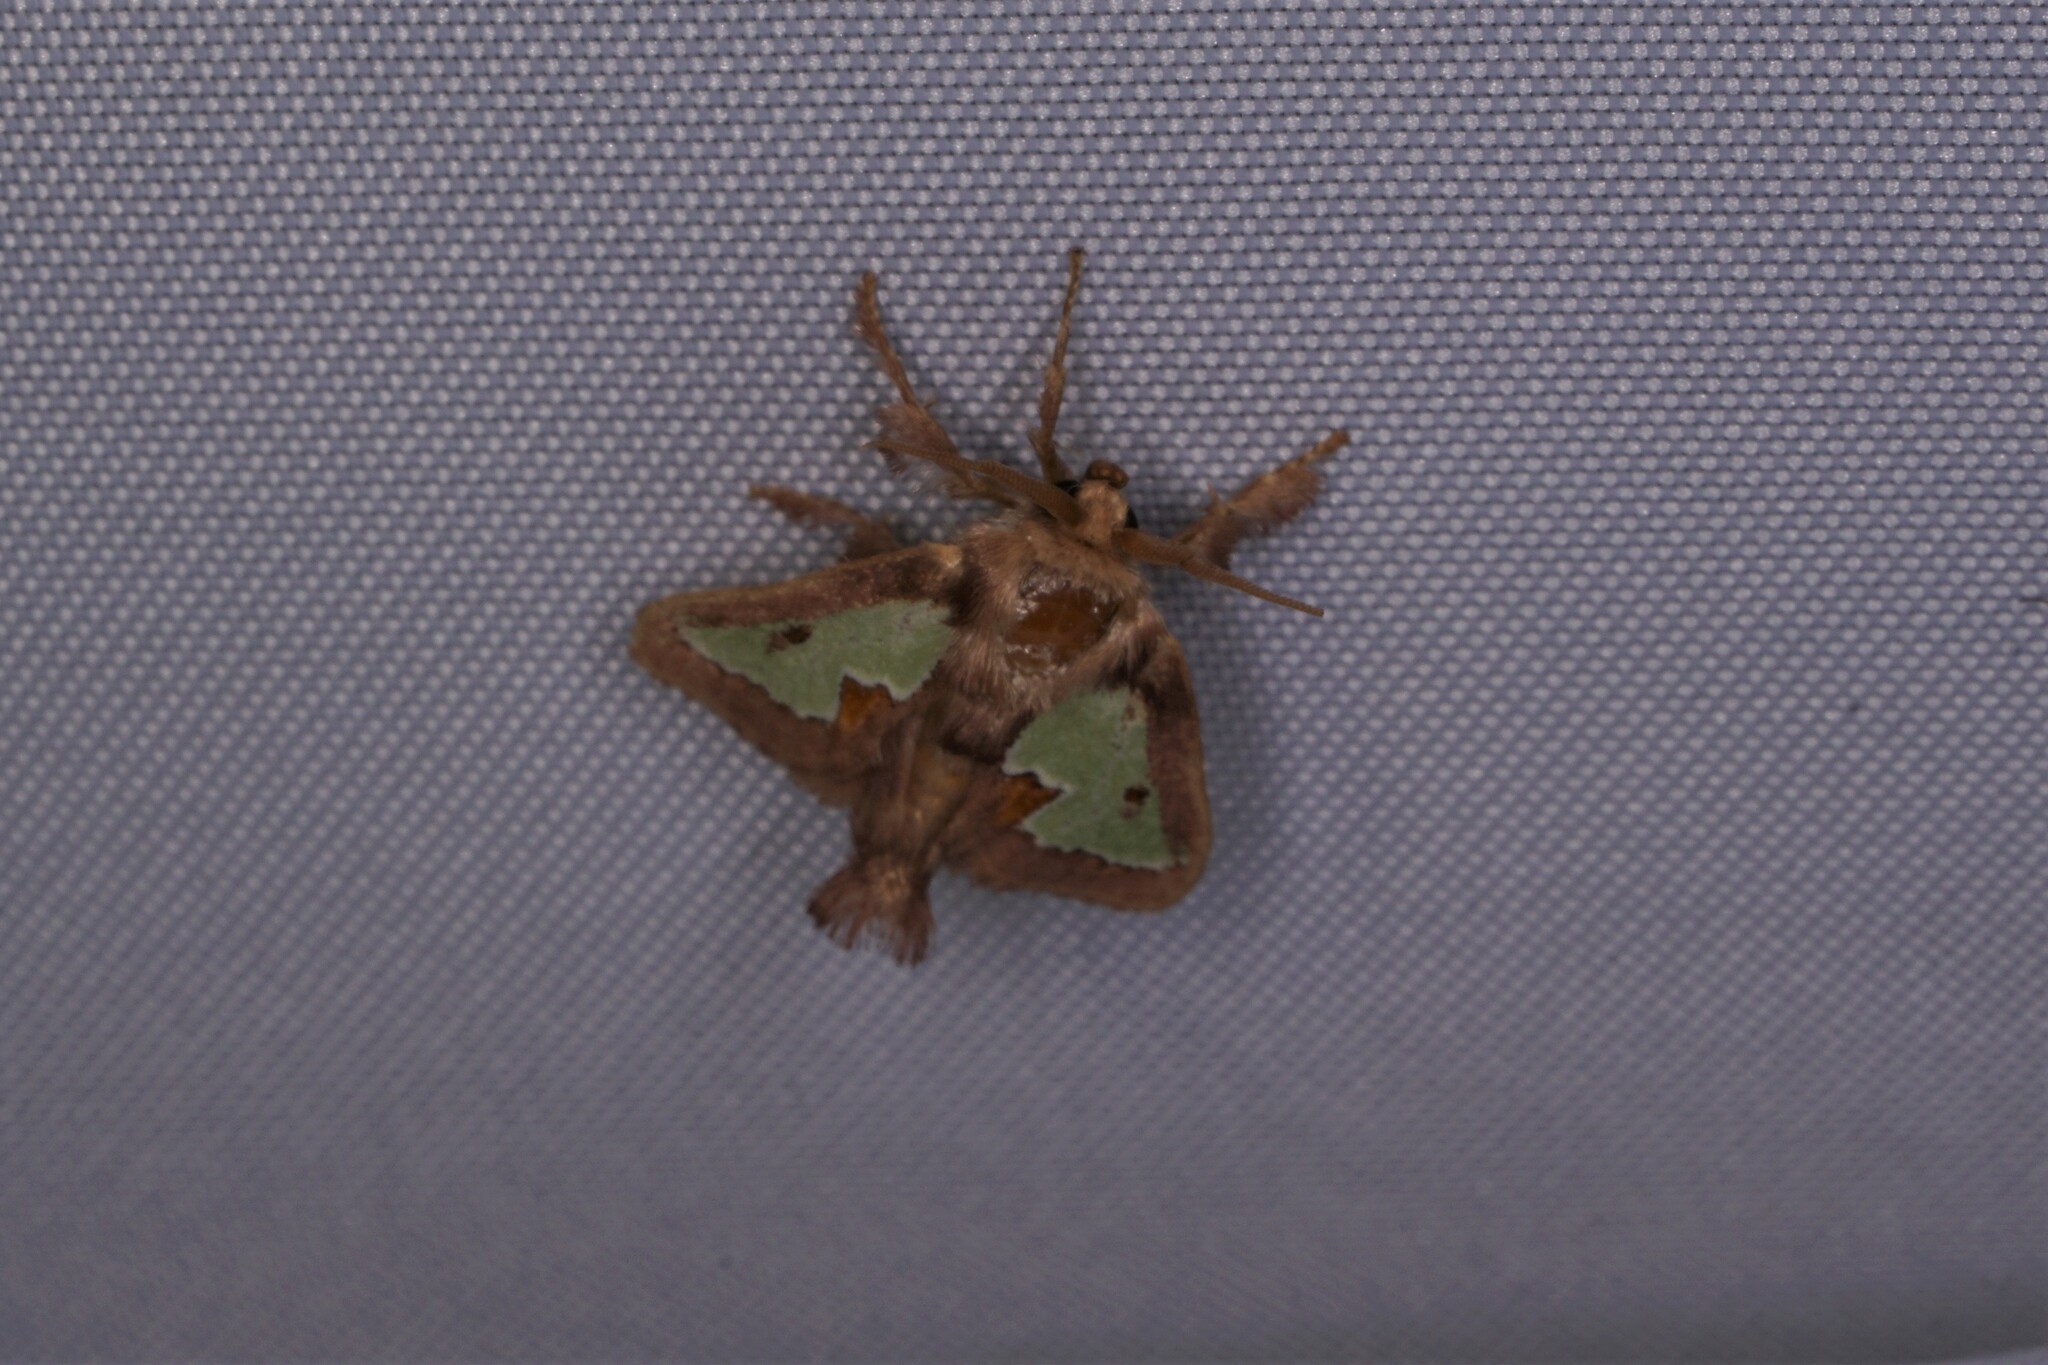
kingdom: Animalia
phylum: Arthropoda
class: Insecta
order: Lepidoptera
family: Limacodidae
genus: Euclea
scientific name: Euclea delphinii
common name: Spiny oak-slug moth
